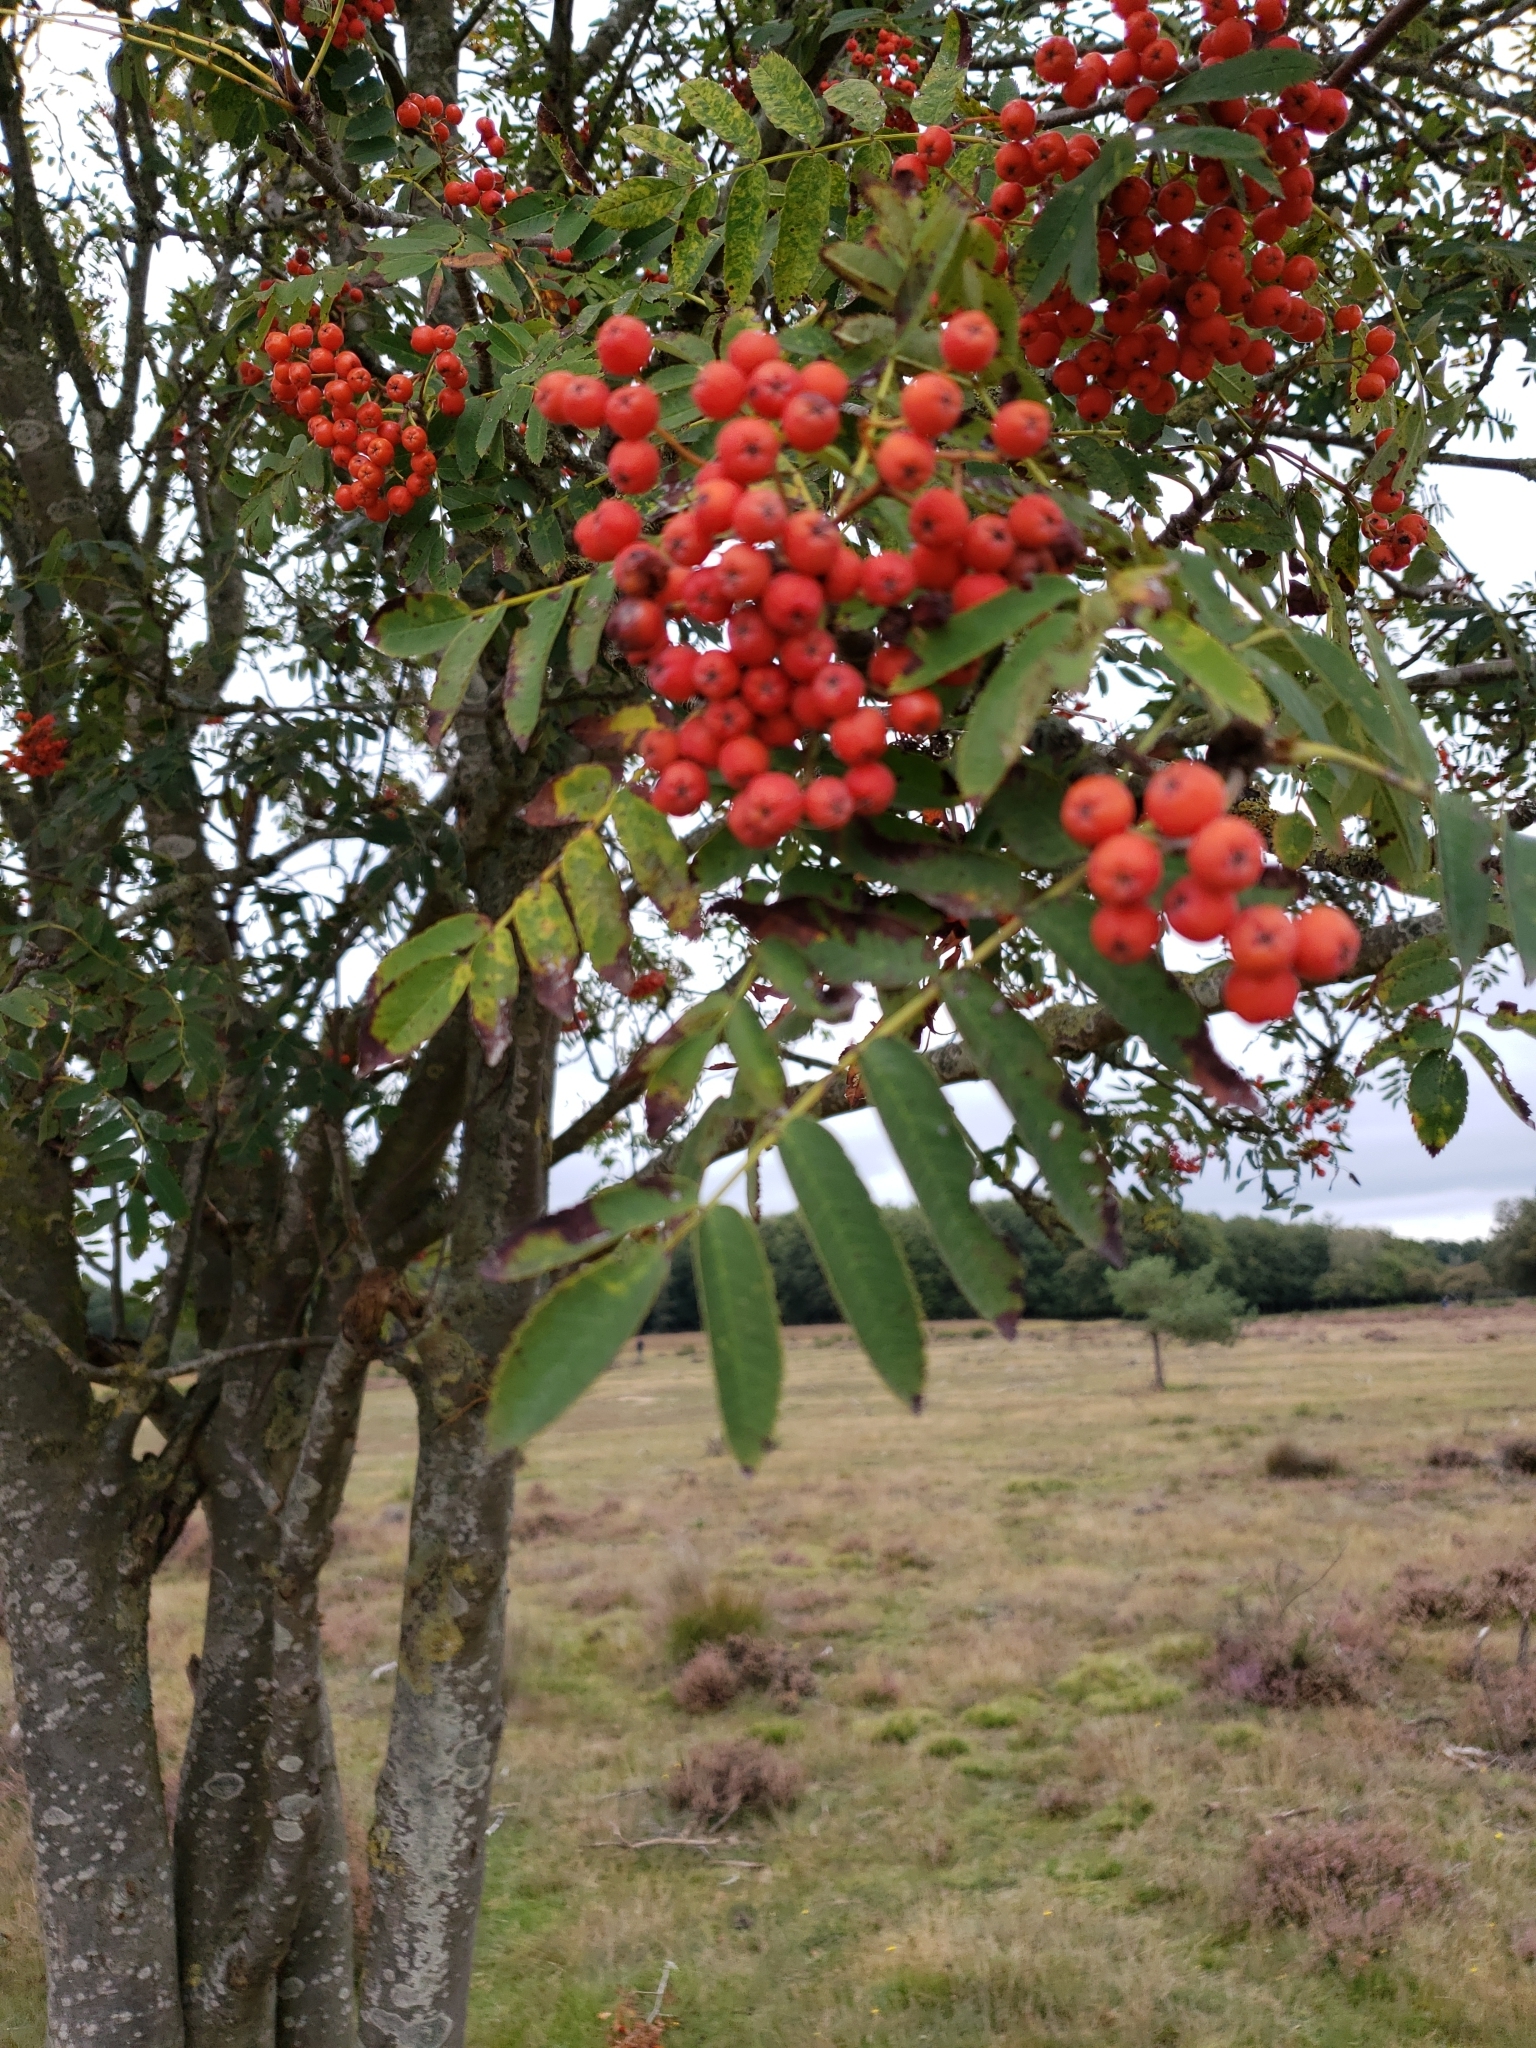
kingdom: Plantae
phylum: Tracheophyta
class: Magnoliopsida
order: Rosales
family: Rosaceae
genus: Sorbus
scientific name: Sorbus aucuparia
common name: Rowan
